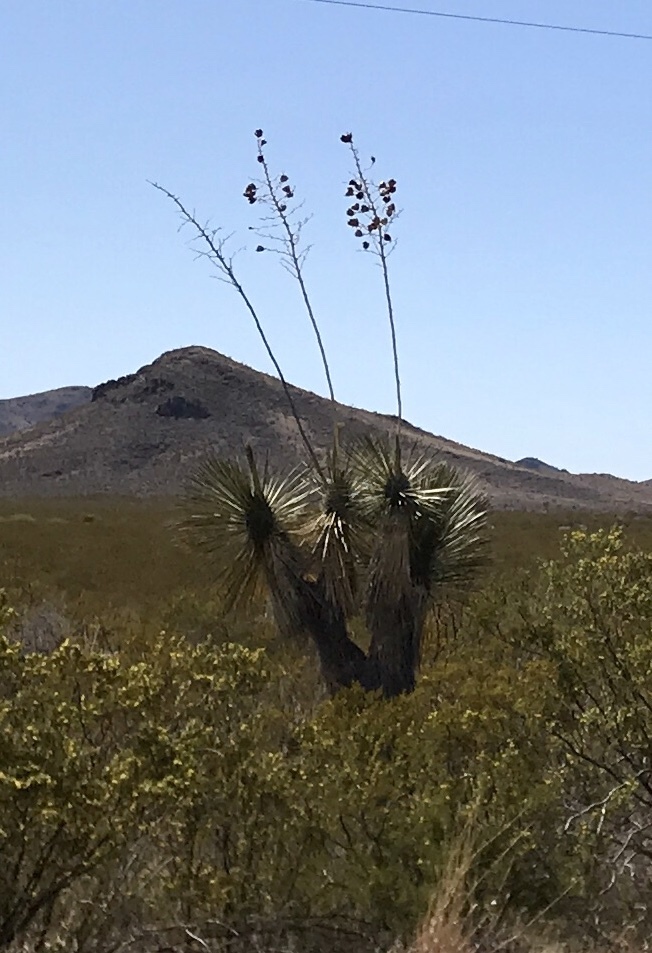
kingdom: Plantae
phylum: Tracheophyta
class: Liliopsida
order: Asparagales
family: Asparagaceae
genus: Yucca
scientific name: Yucca elata
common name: Palmella
